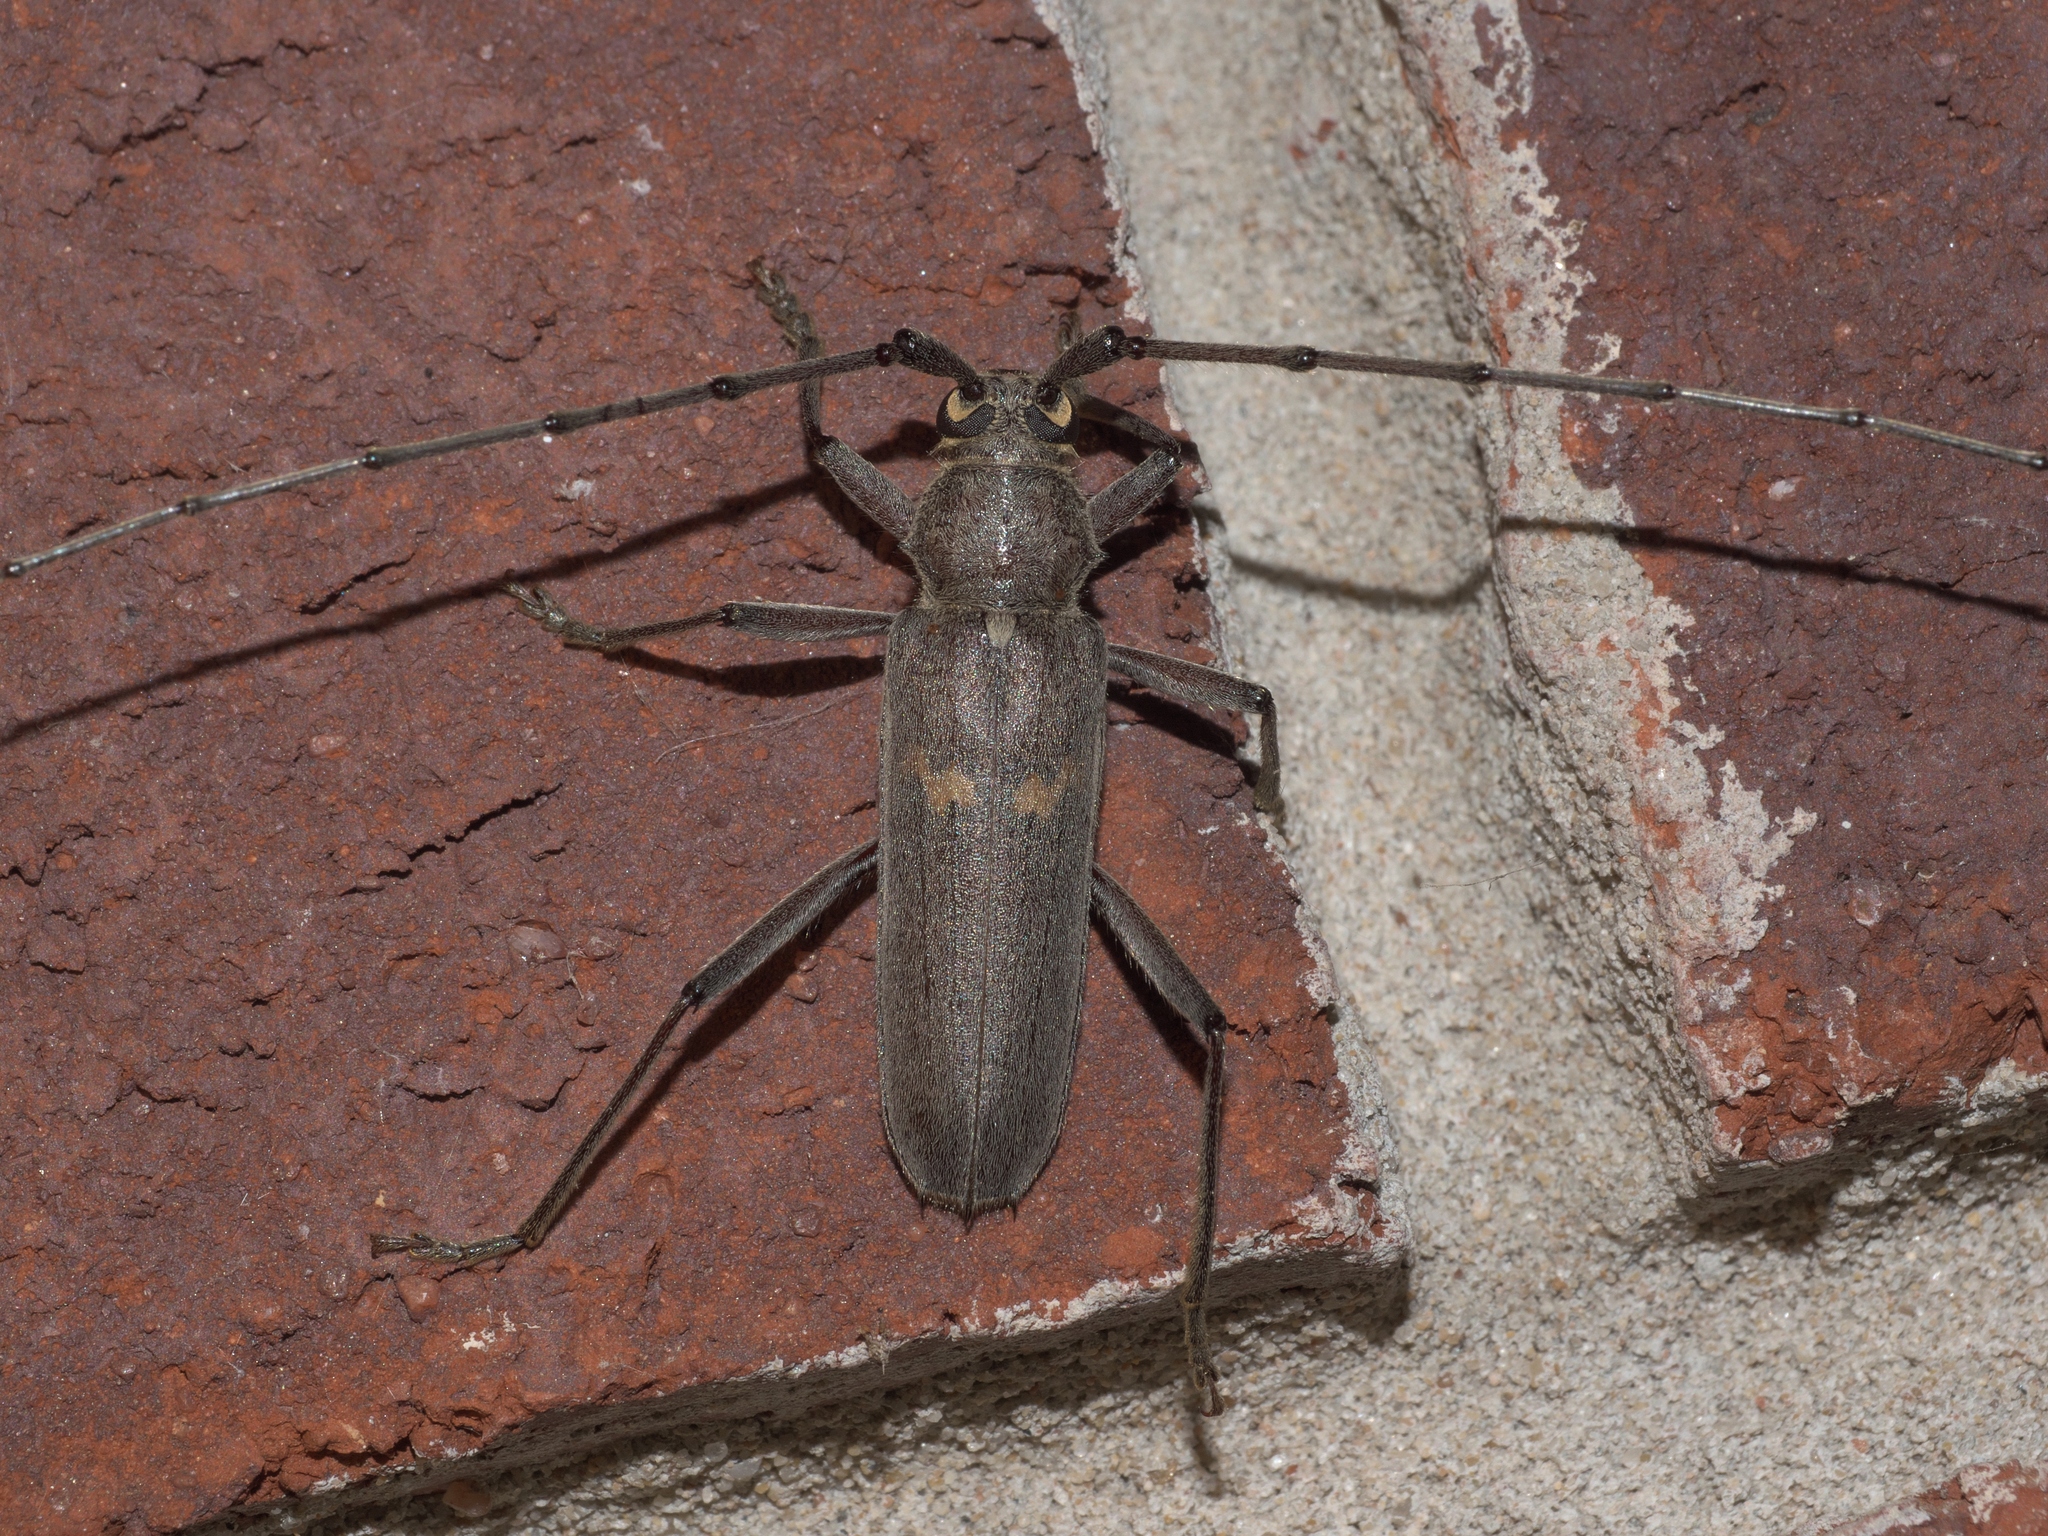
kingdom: Animalia
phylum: Arthropoda
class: Insecta
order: Coleoptera
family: Cerambycidae
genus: Knulliana
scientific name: Knulliana cincta
